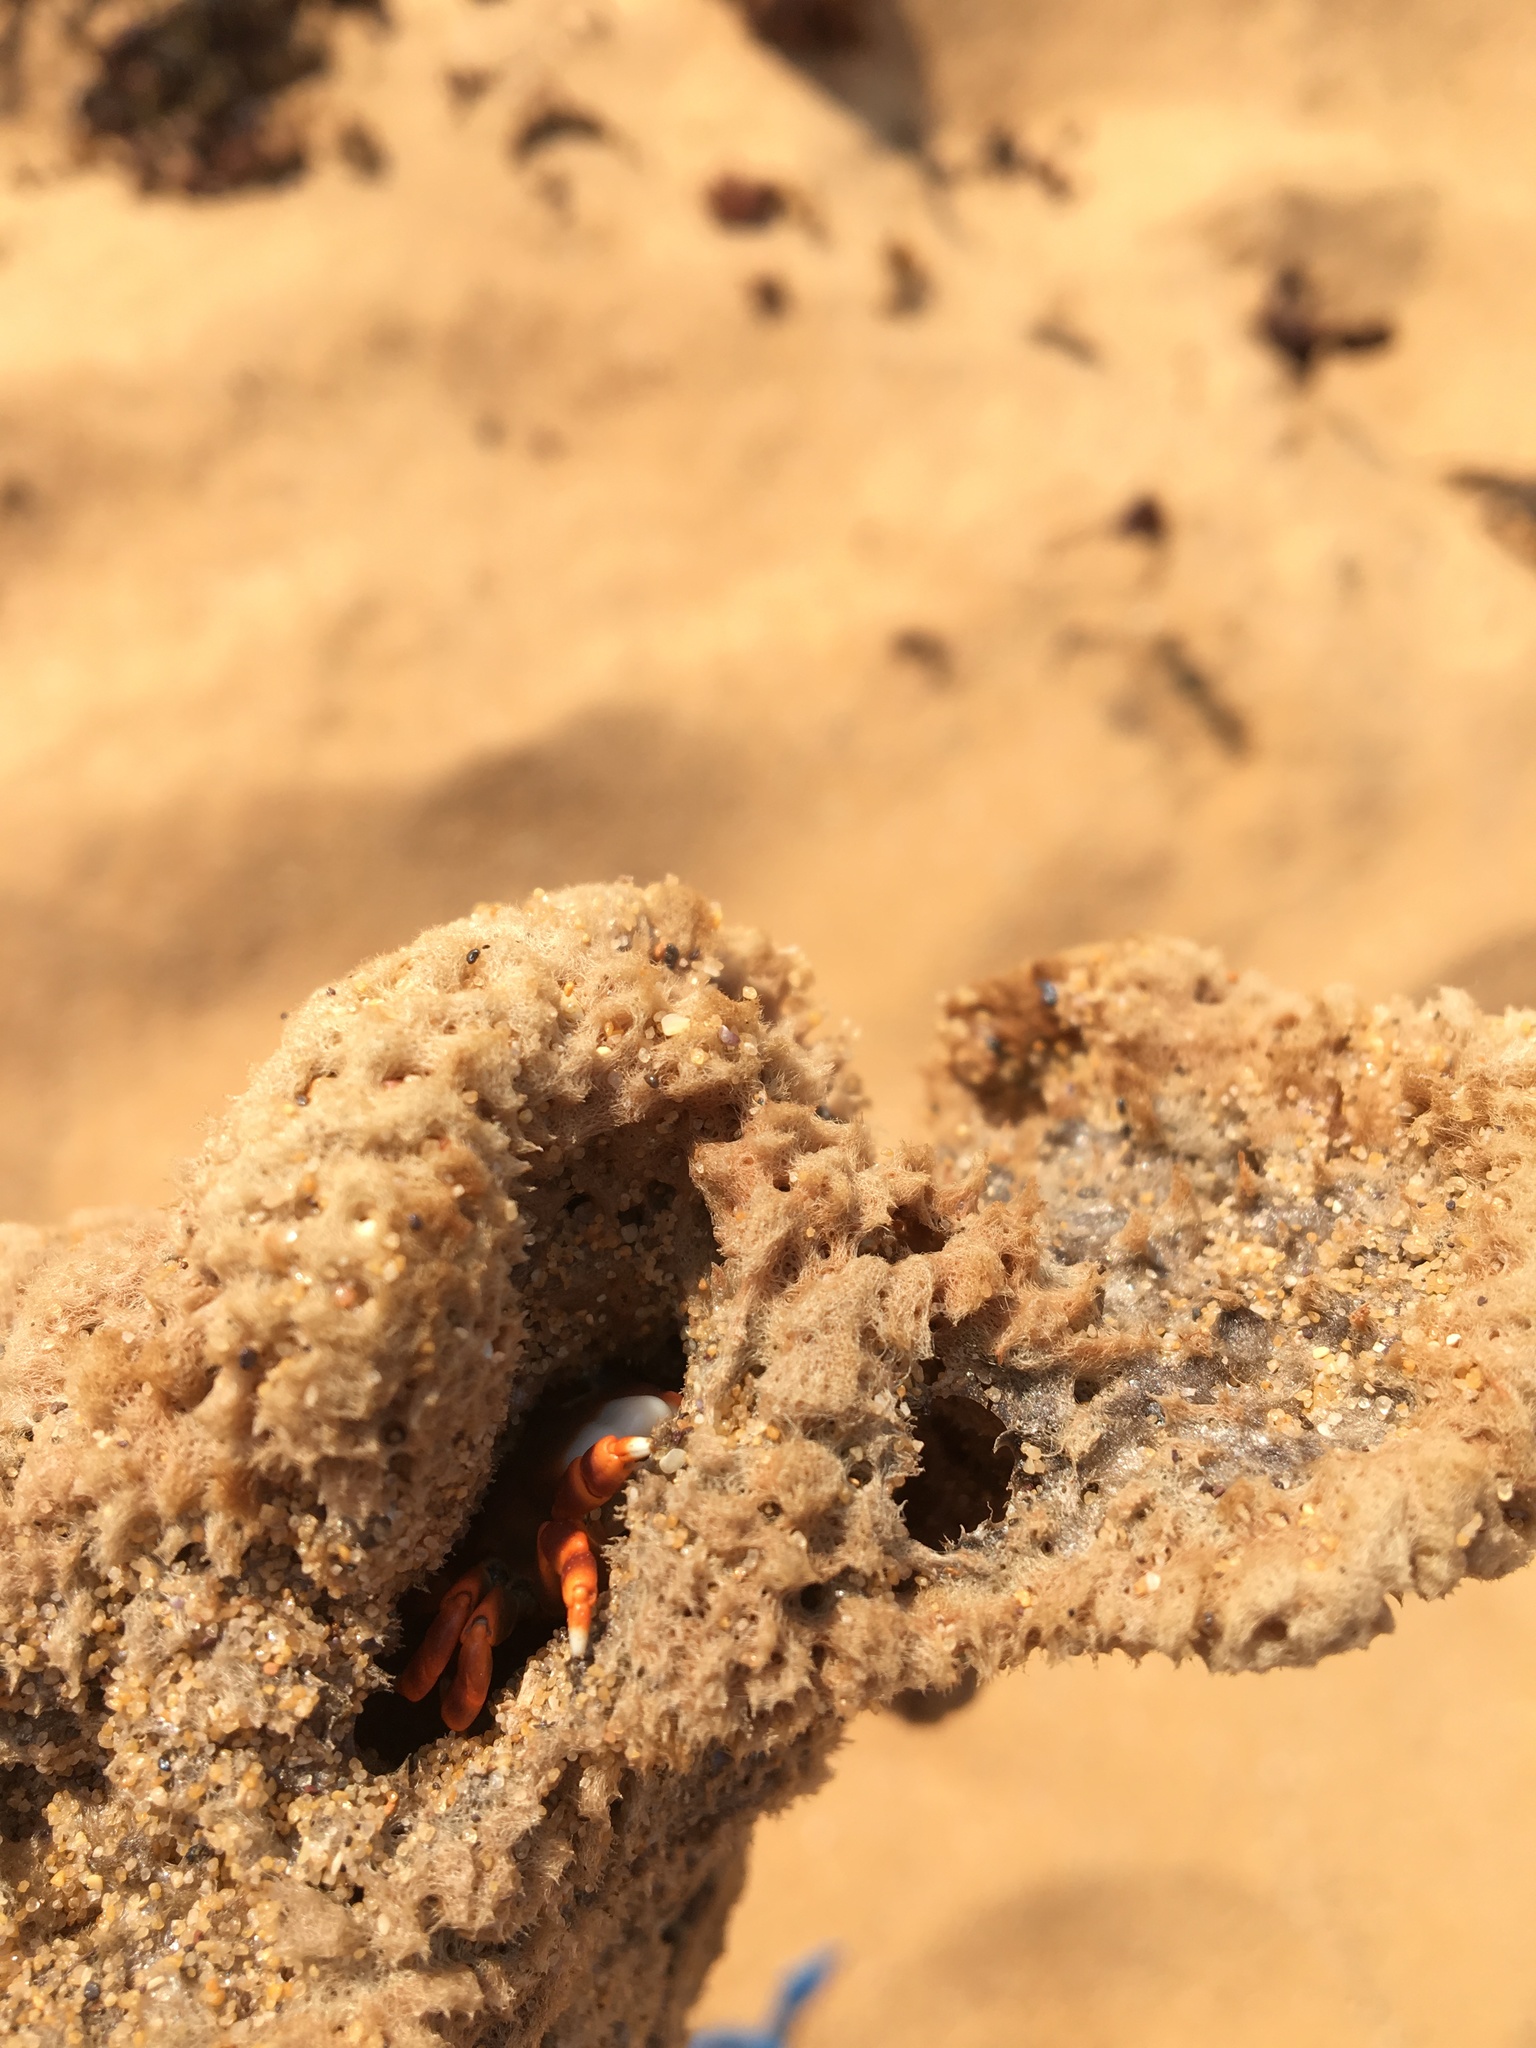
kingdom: Animalia
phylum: Arthropoda
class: Malacostraca
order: Decapoda
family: Xanthidae
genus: Liomera
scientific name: Liomera cinctimanus
